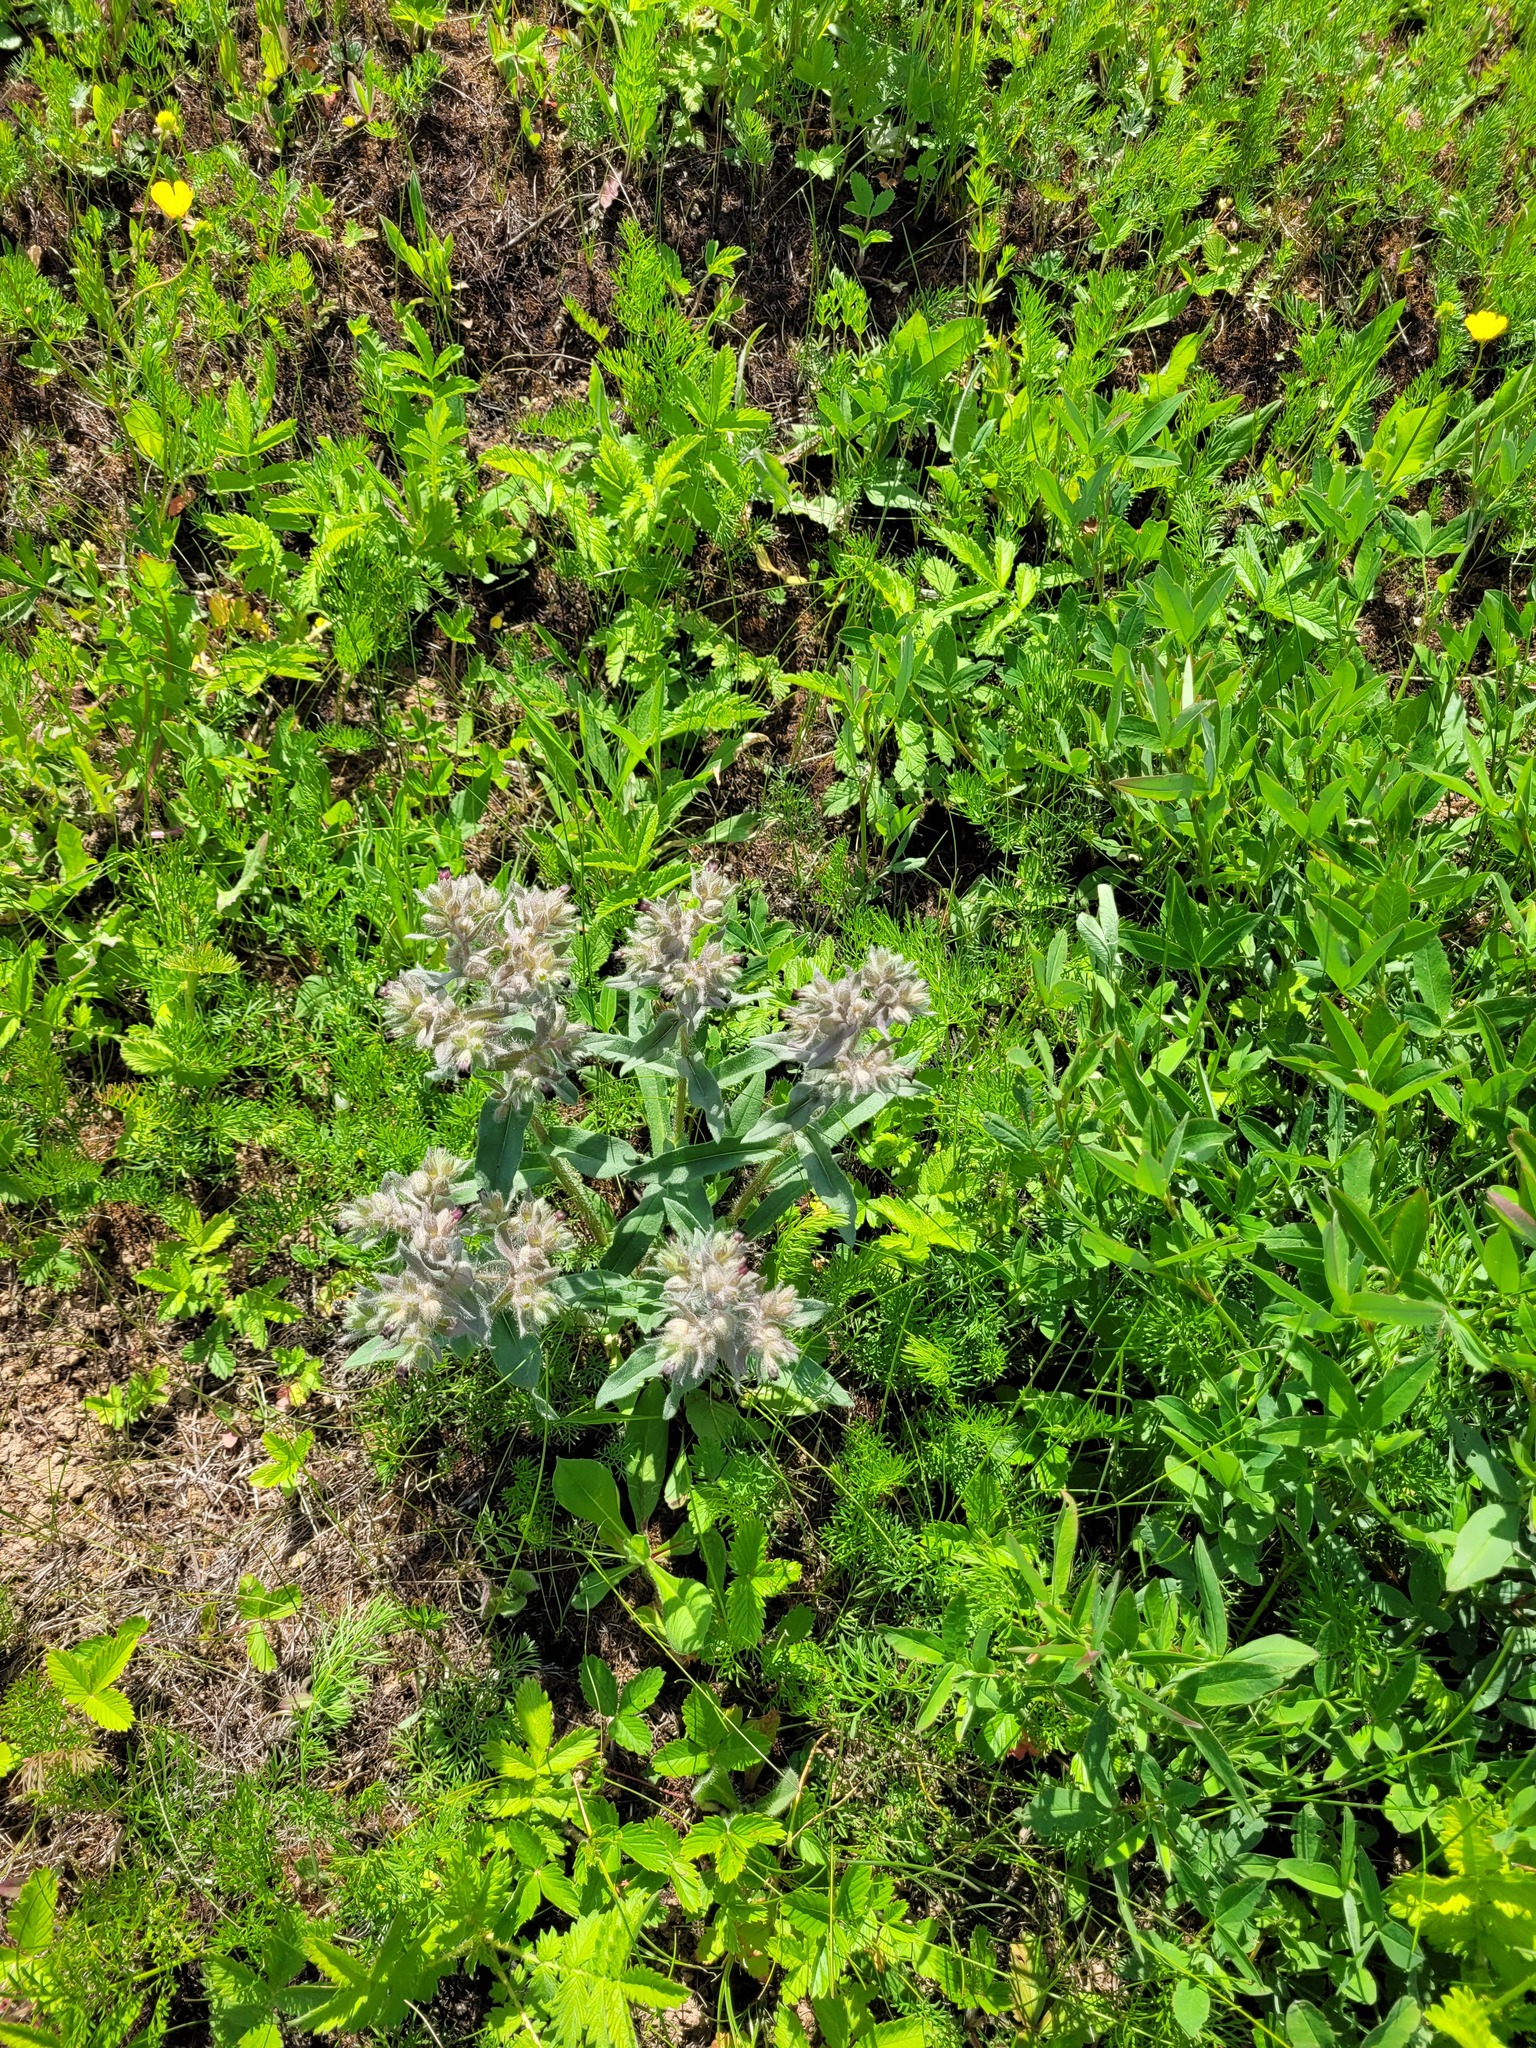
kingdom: Plantae
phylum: Tracheophyta
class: Magnoliopsida
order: Boraginales
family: Boraginaceae
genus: Nonea
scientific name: Nonea pulla
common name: Brown nonea
